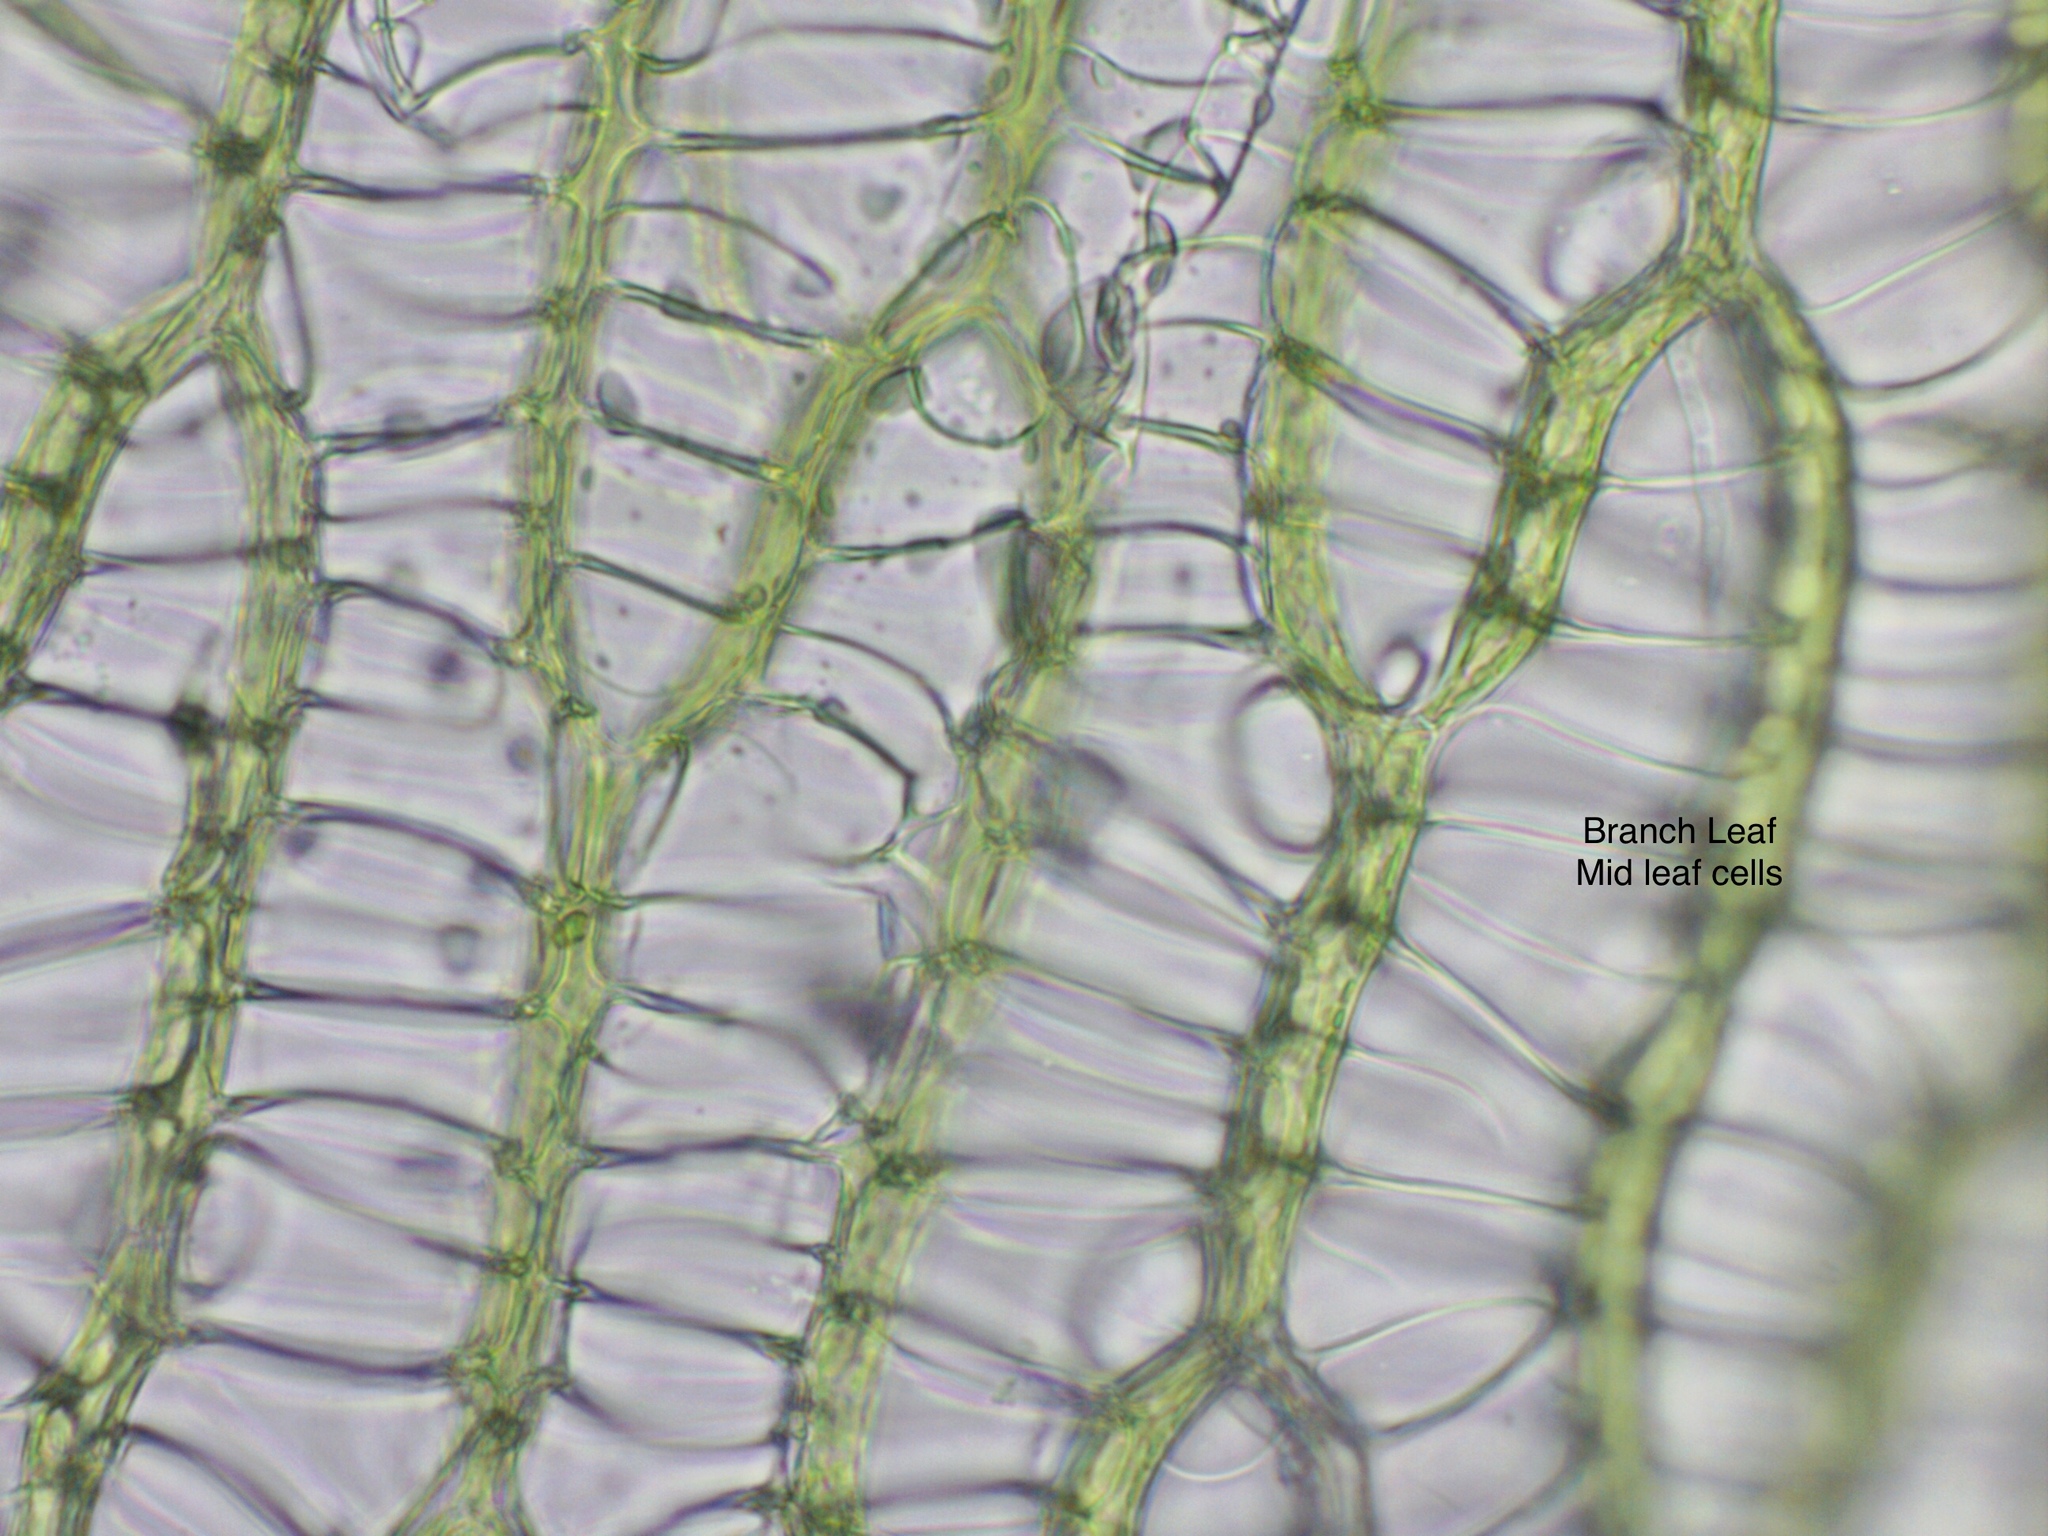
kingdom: Plantae
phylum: Bryophyta
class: Sphagnopsida
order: Sphagnales
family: Sphagnaceae
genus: Sphagnum
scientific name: Sphagnum riparium
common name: Streamside peat moss
